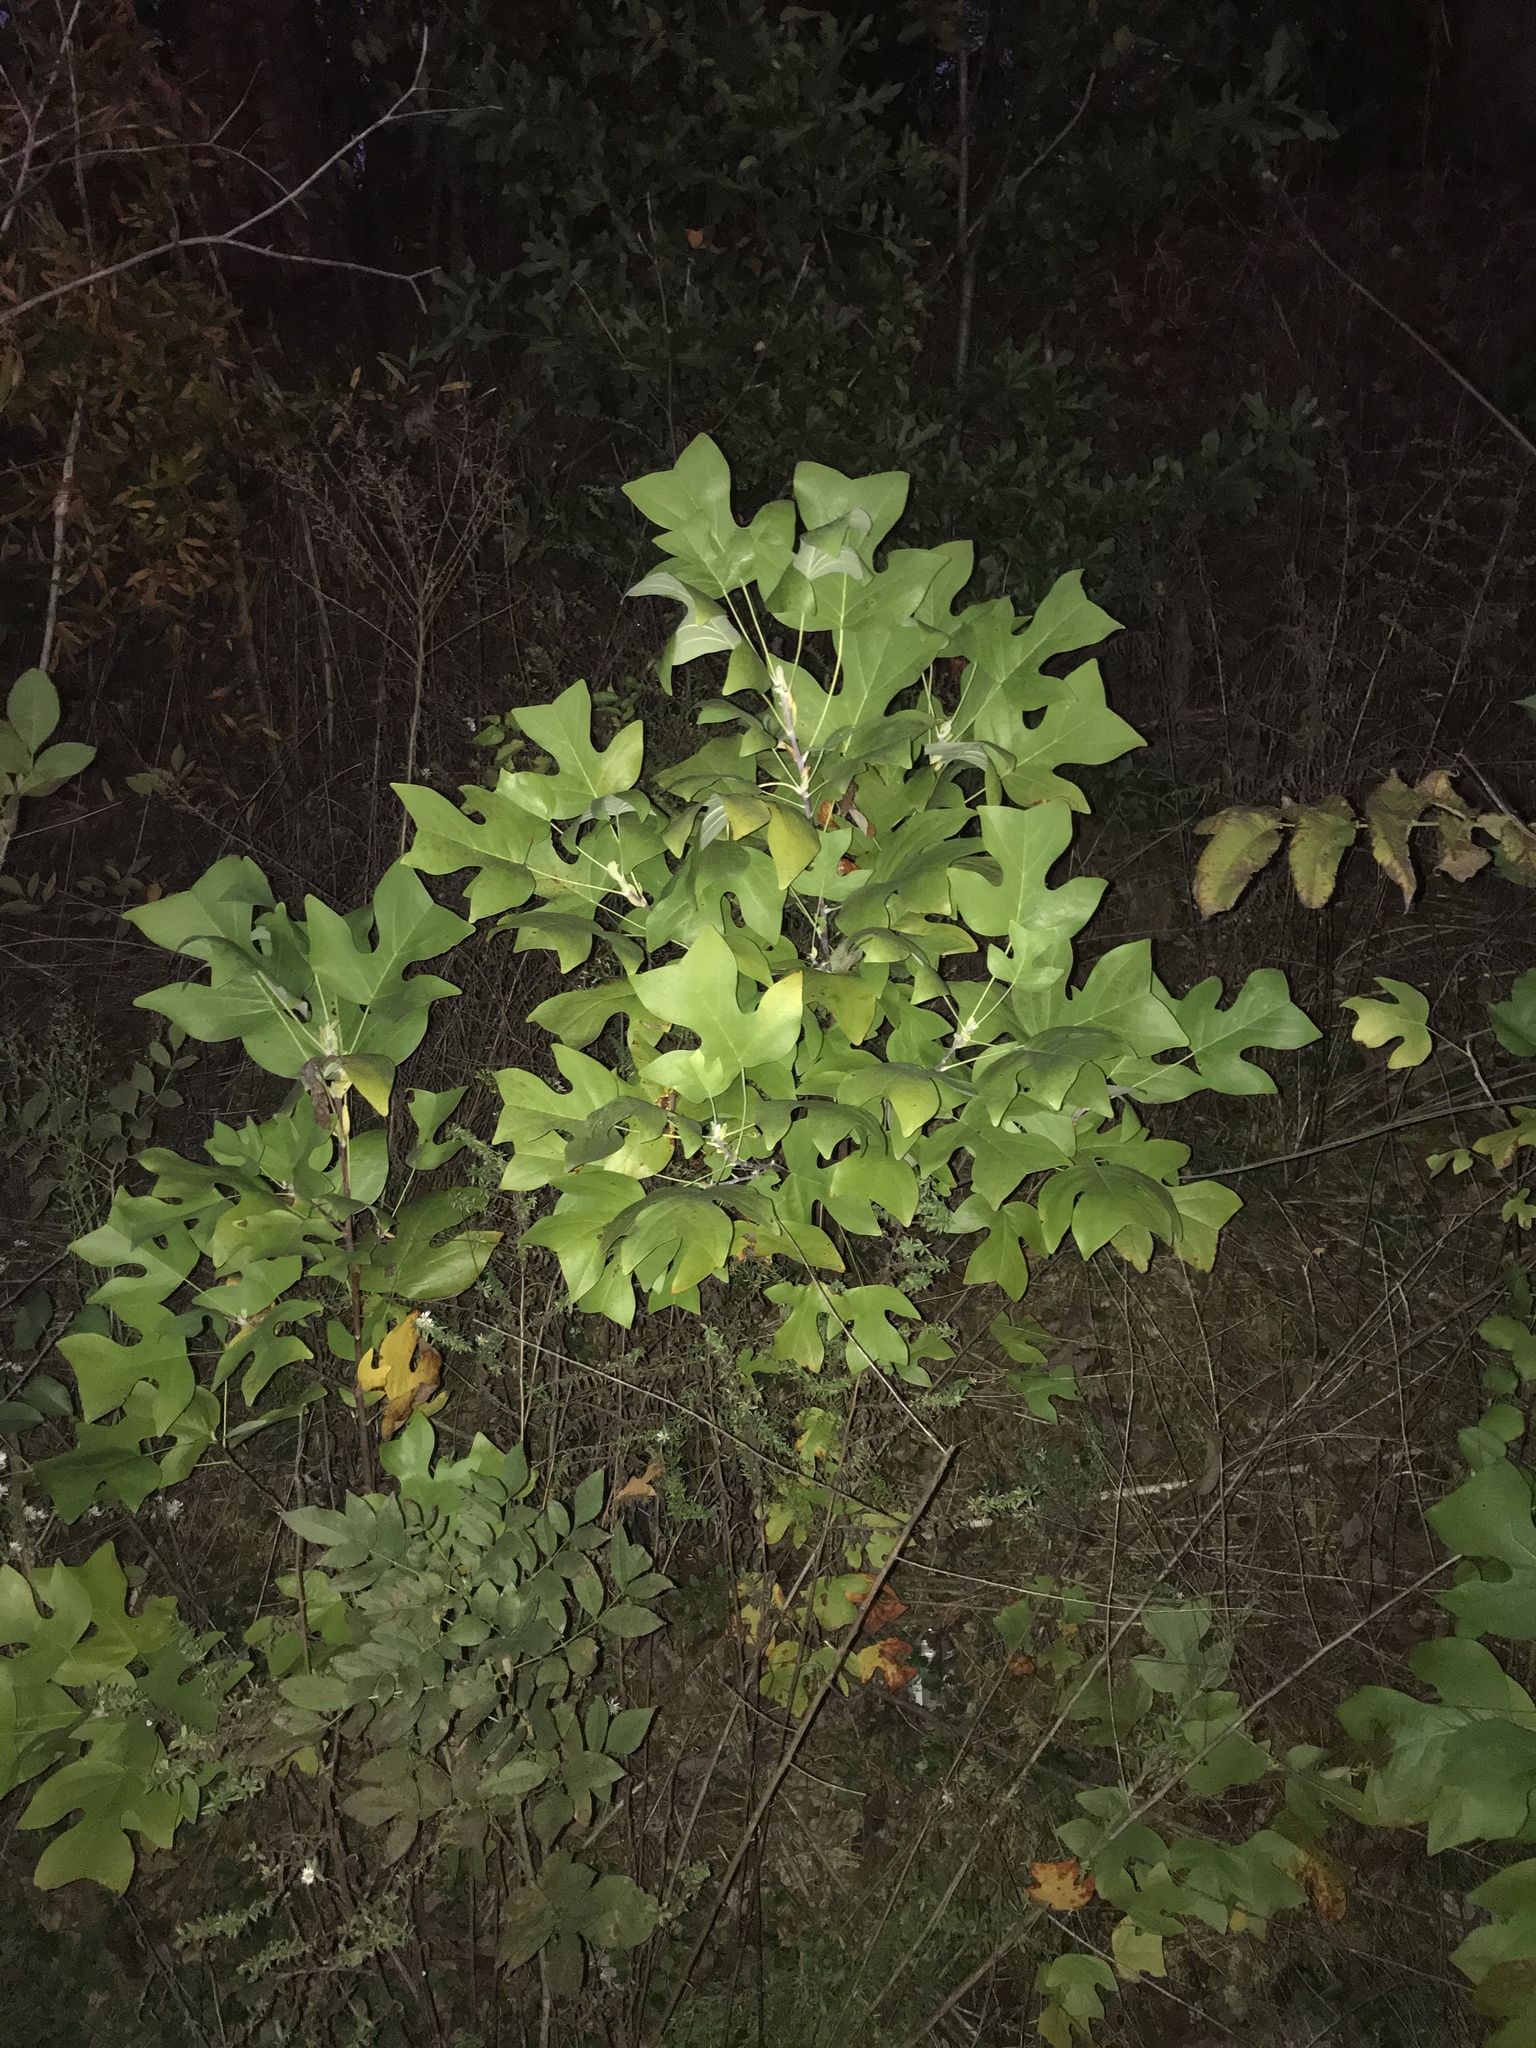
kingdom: Plantae
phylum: Tracheophyta
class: Magnoliopsida
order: Magnoliales
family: Magnoliaceae
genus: Liriodendron
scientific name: Liriodendron tulipifera
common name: Tulip tree
